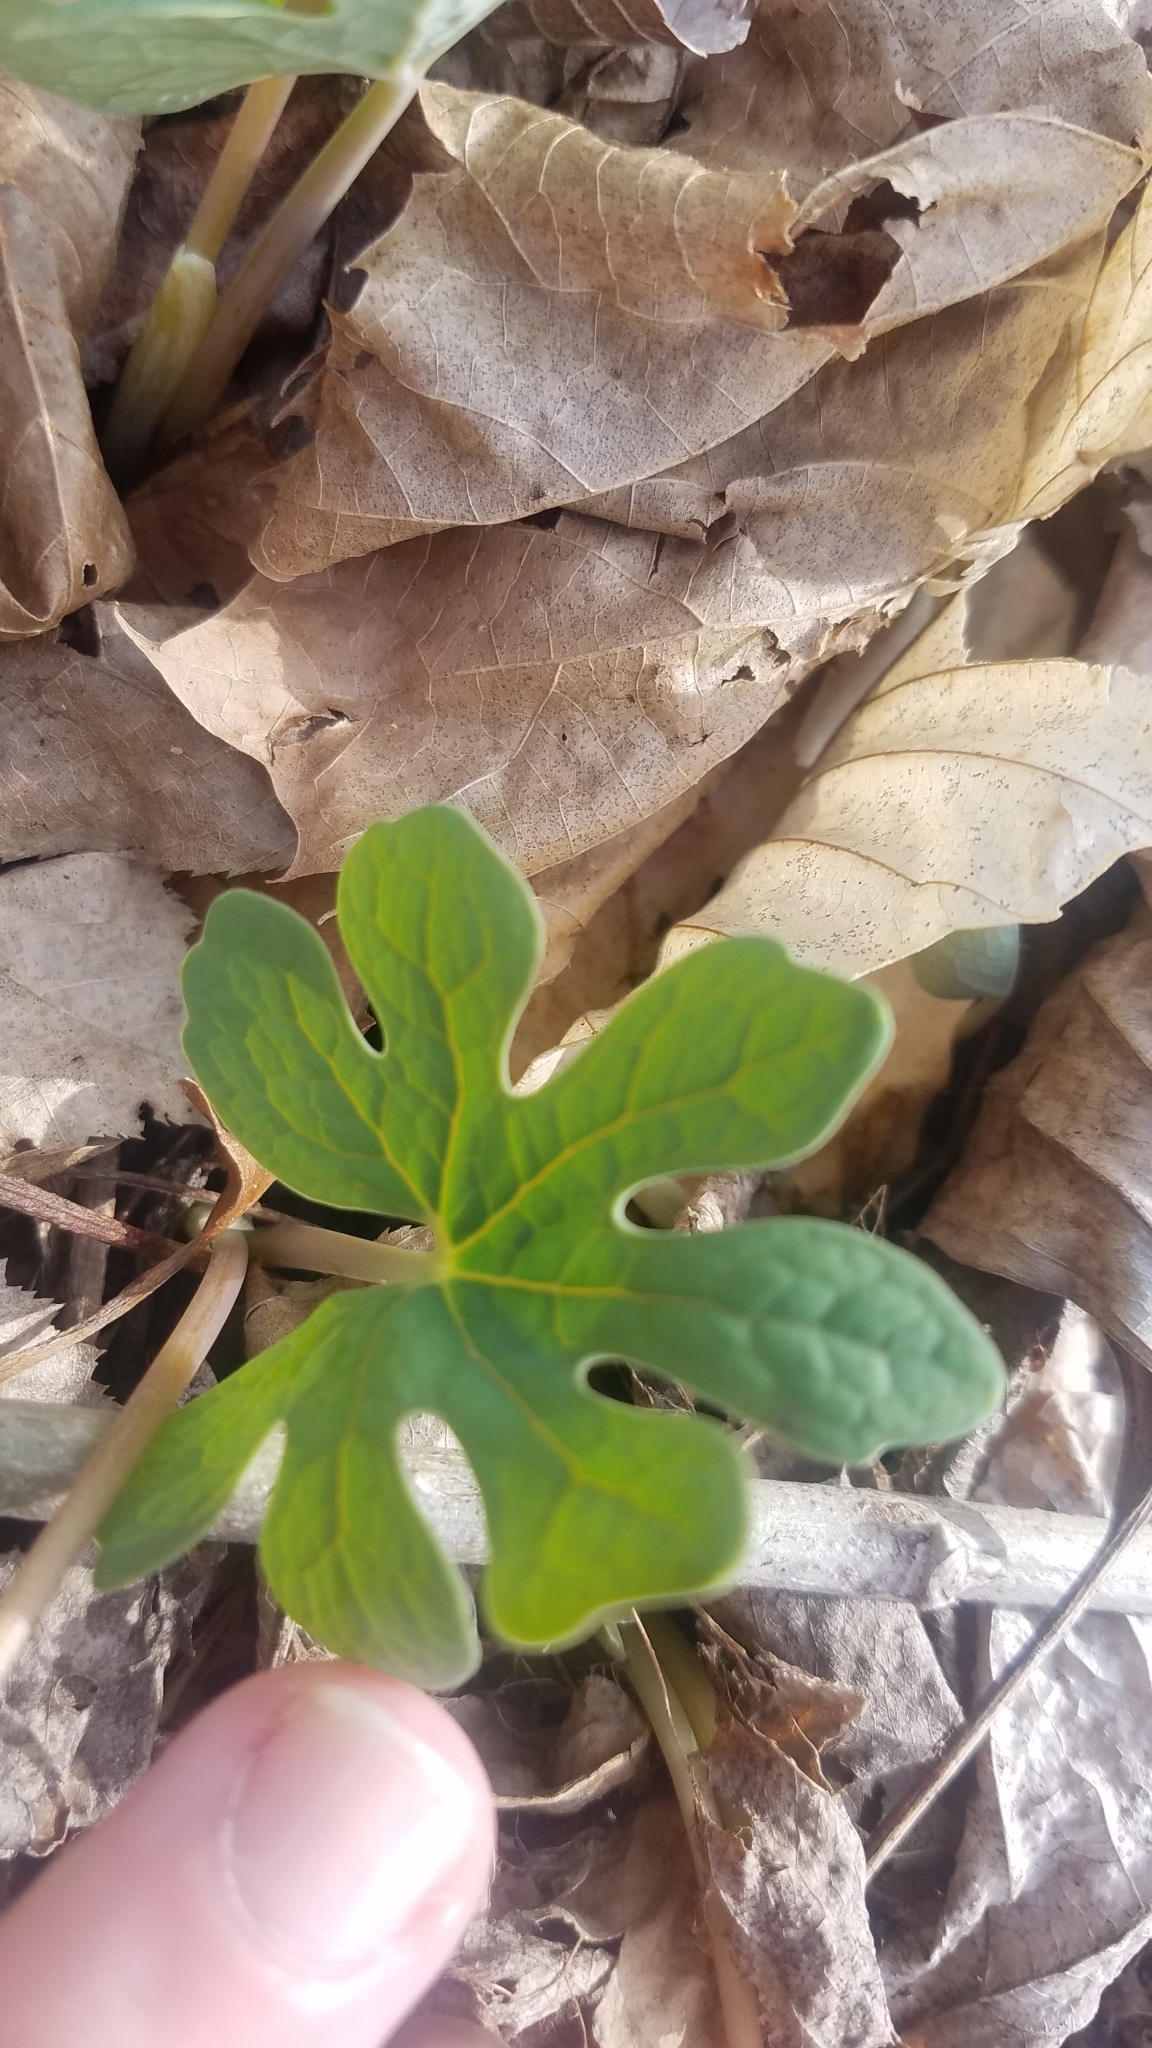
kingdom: Plantae
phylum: Tracheophyta
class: Magnoliopsida
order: Ranunculales
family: Papaveraceae
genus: Sanguinaria
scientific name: Sanguinaria canadensis
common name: Bloodroot
